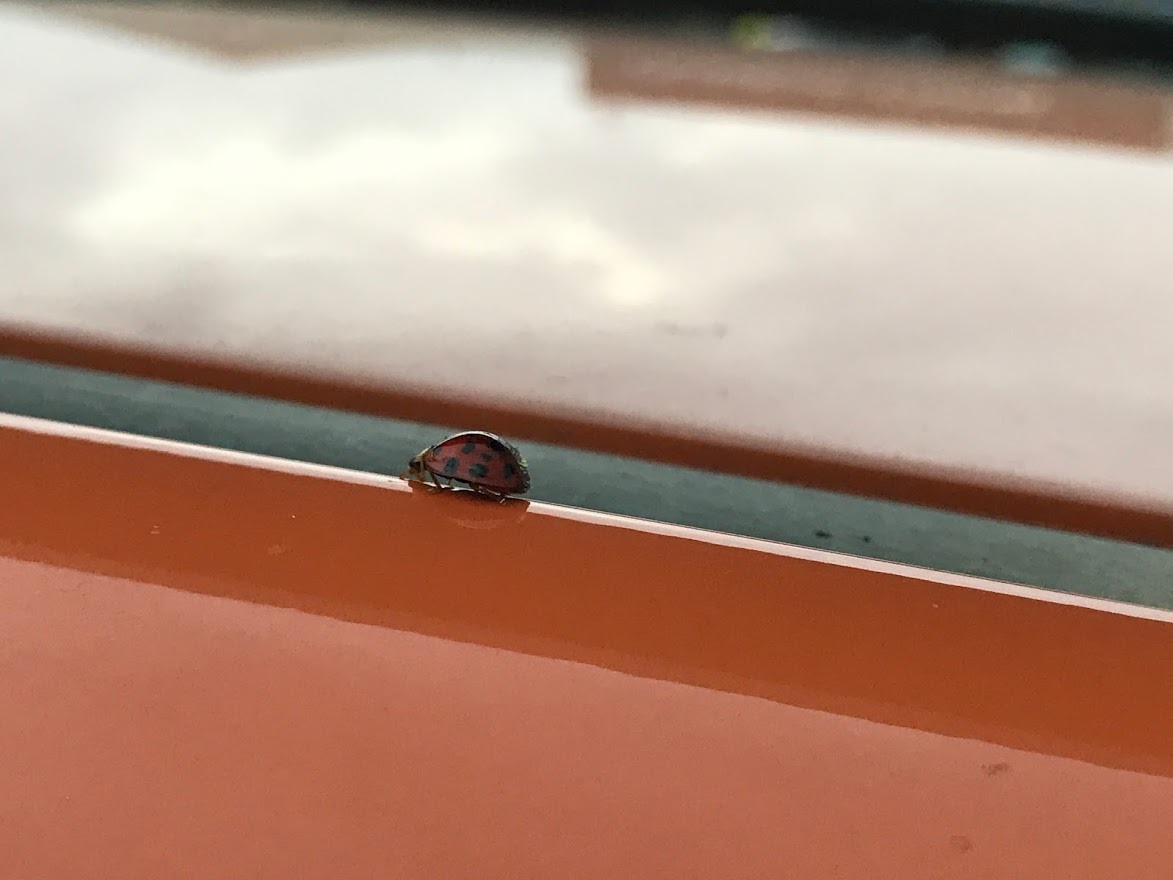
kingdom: Animalia
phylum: Arthropoda
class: Insecta
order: Coleoptera
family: Coccinellidae
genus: Harmonia
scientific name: Harmonia axyridis
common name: Harlequin ladybird
